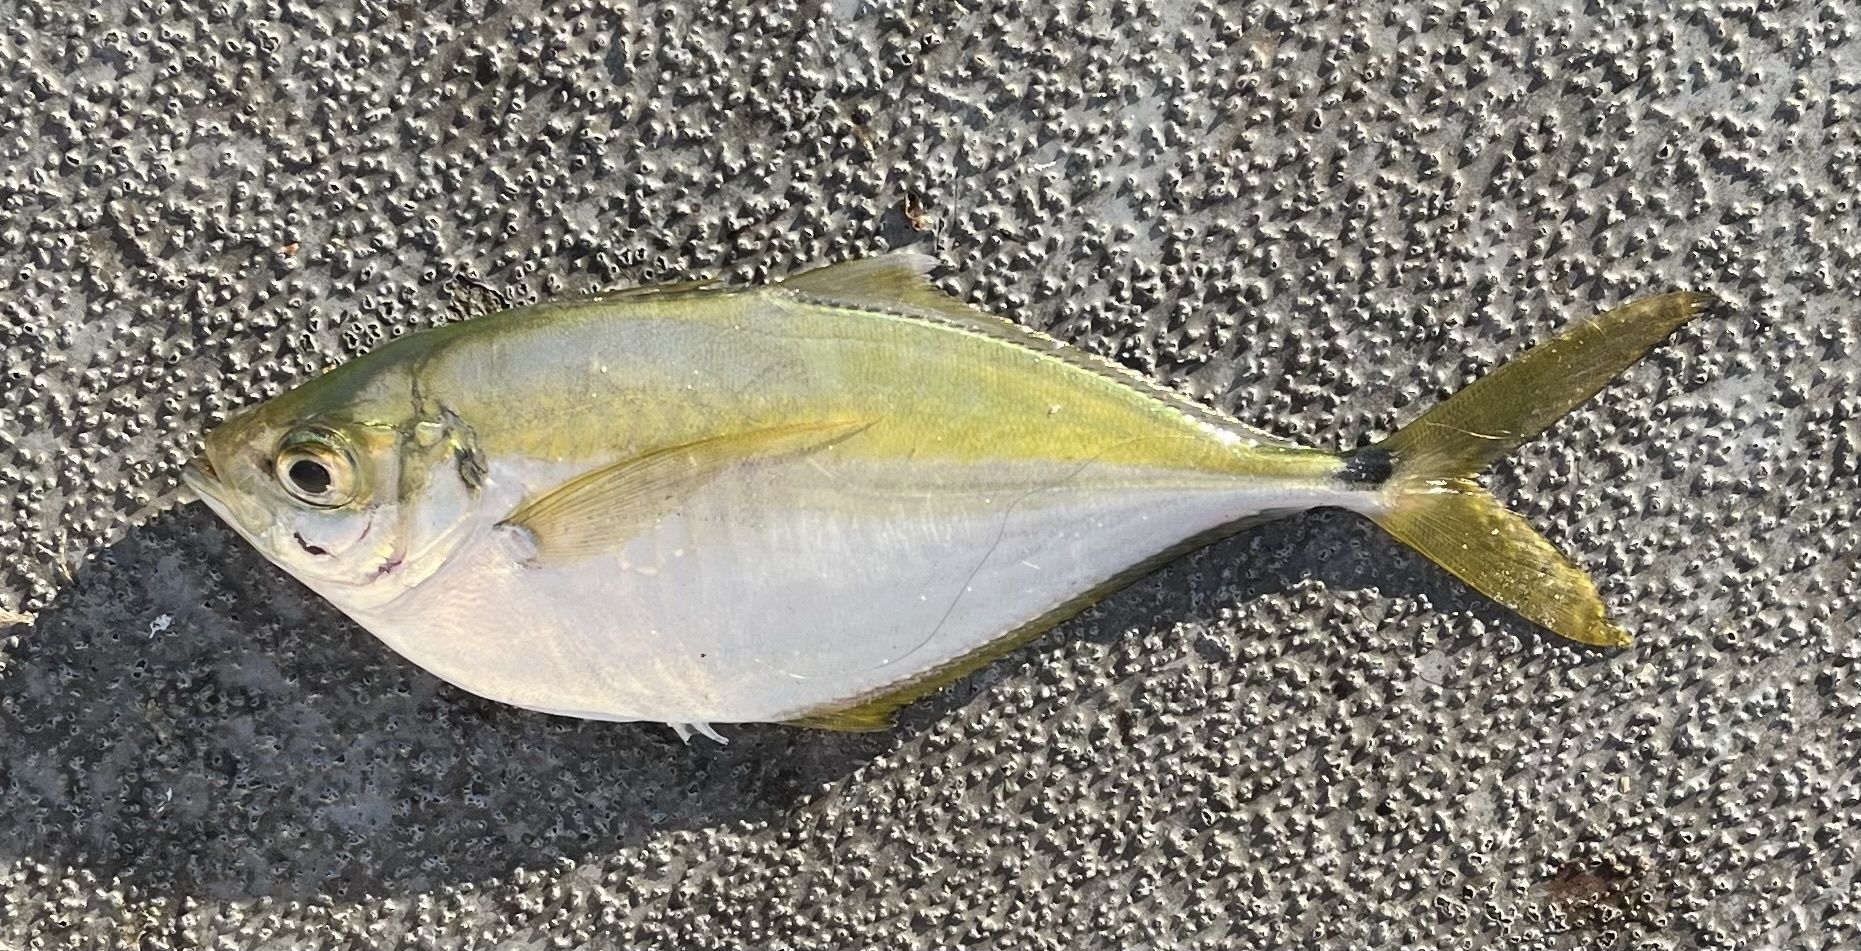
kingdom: Animalia
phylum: Chordata
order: Perciformes
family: Carangidae
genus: Chloroscombrus
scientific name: Chloroscombrus chrysurus
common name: Bumper
